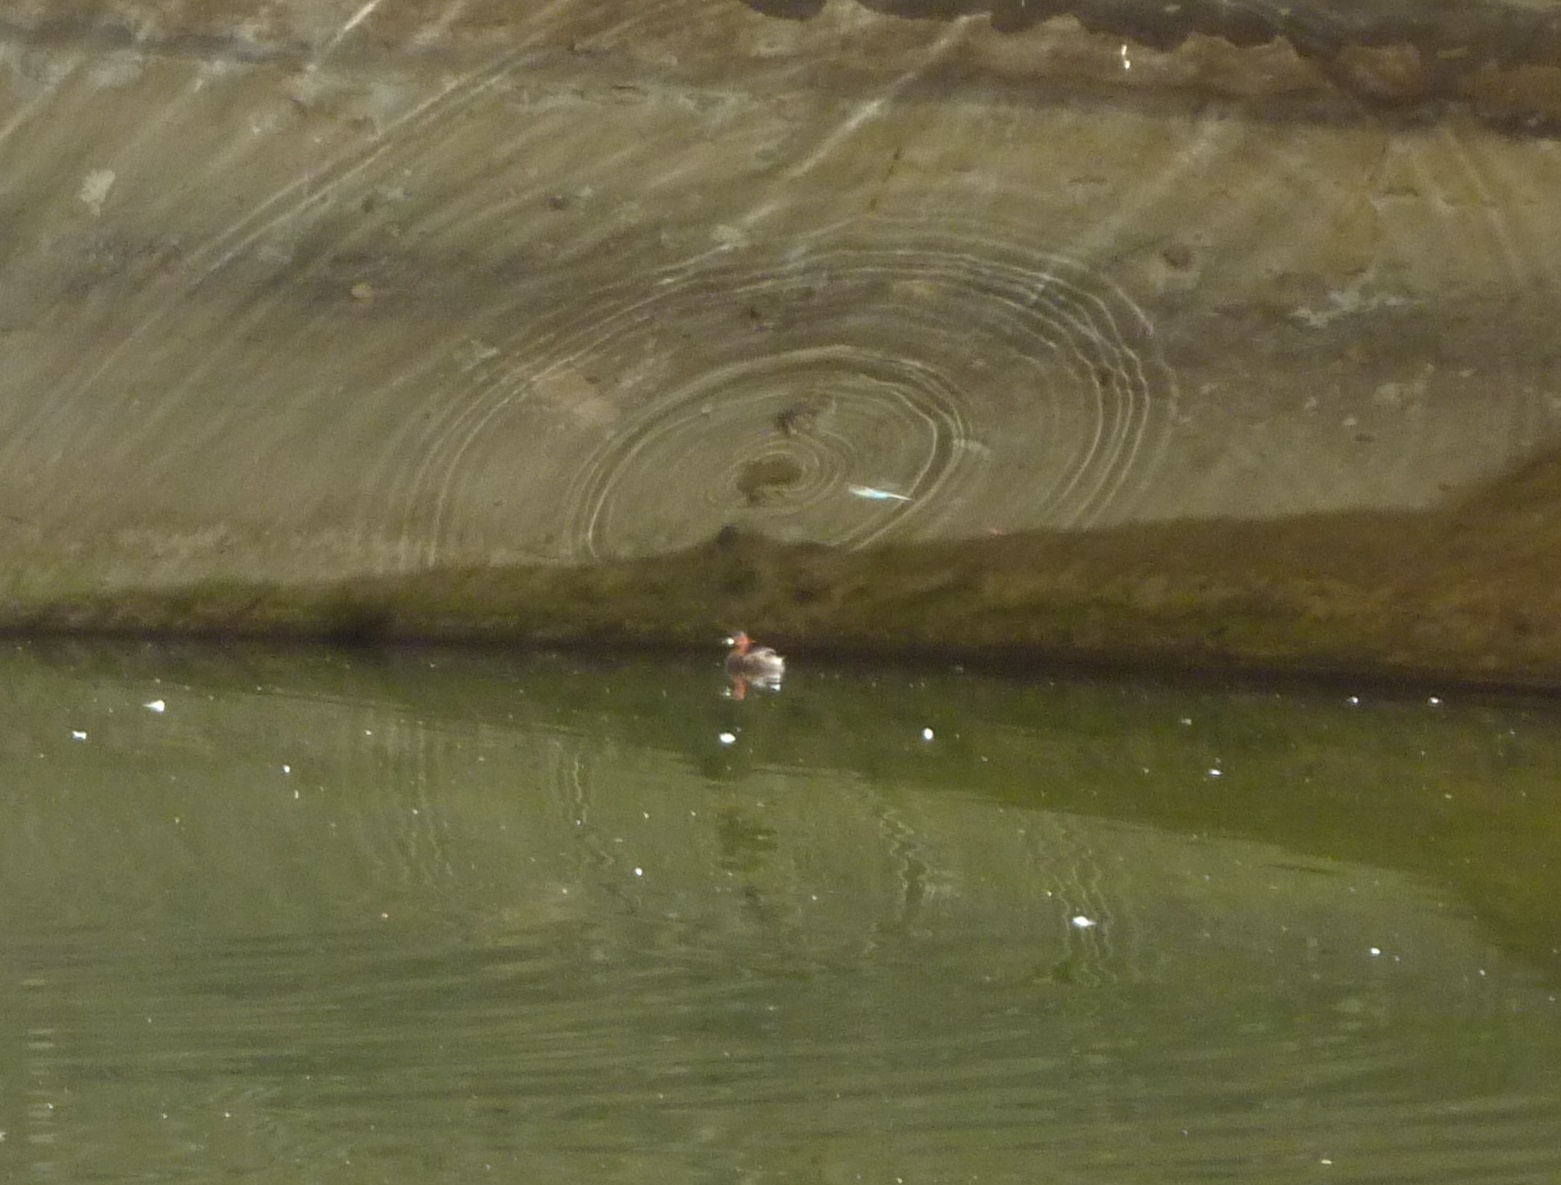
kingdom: Animalia
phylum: Chordata
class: Aves
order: Podicipediformes
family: Podicipedidae
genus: Tachybaptus
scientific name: Tachybaptus ruficollis
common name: Little grebe
